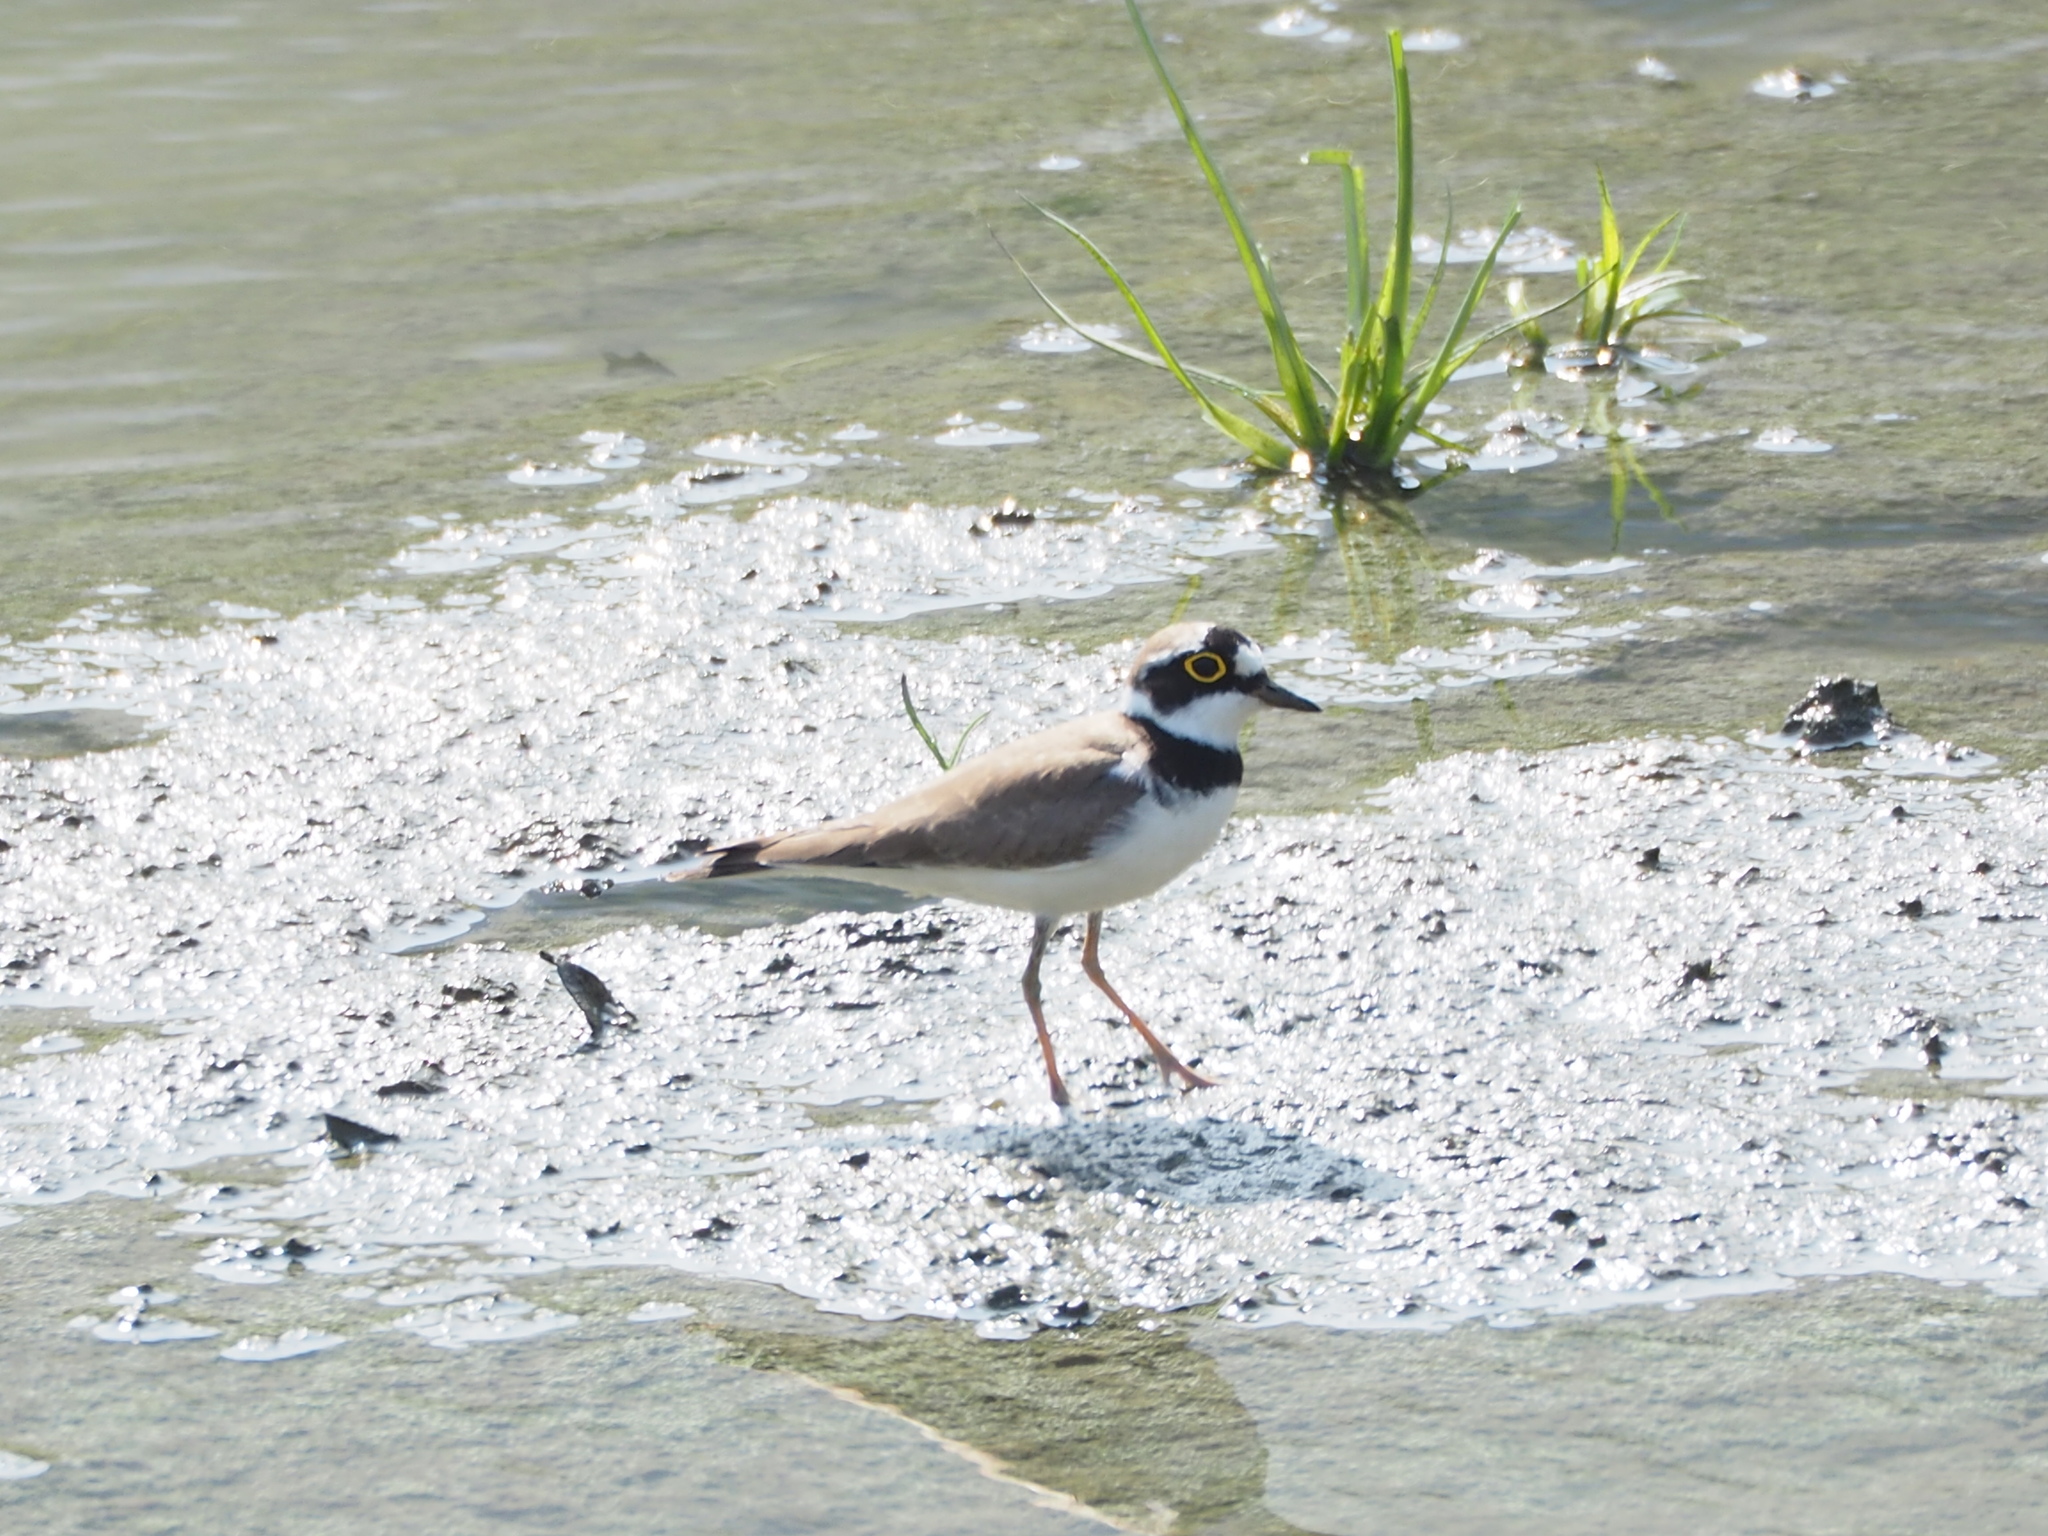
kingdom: Animalia
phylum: Chordata
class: Aves
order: Charadriiformes
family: Charadriidae
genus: Charadrius
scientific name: Charadrius dubius
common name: Little ringed plover
